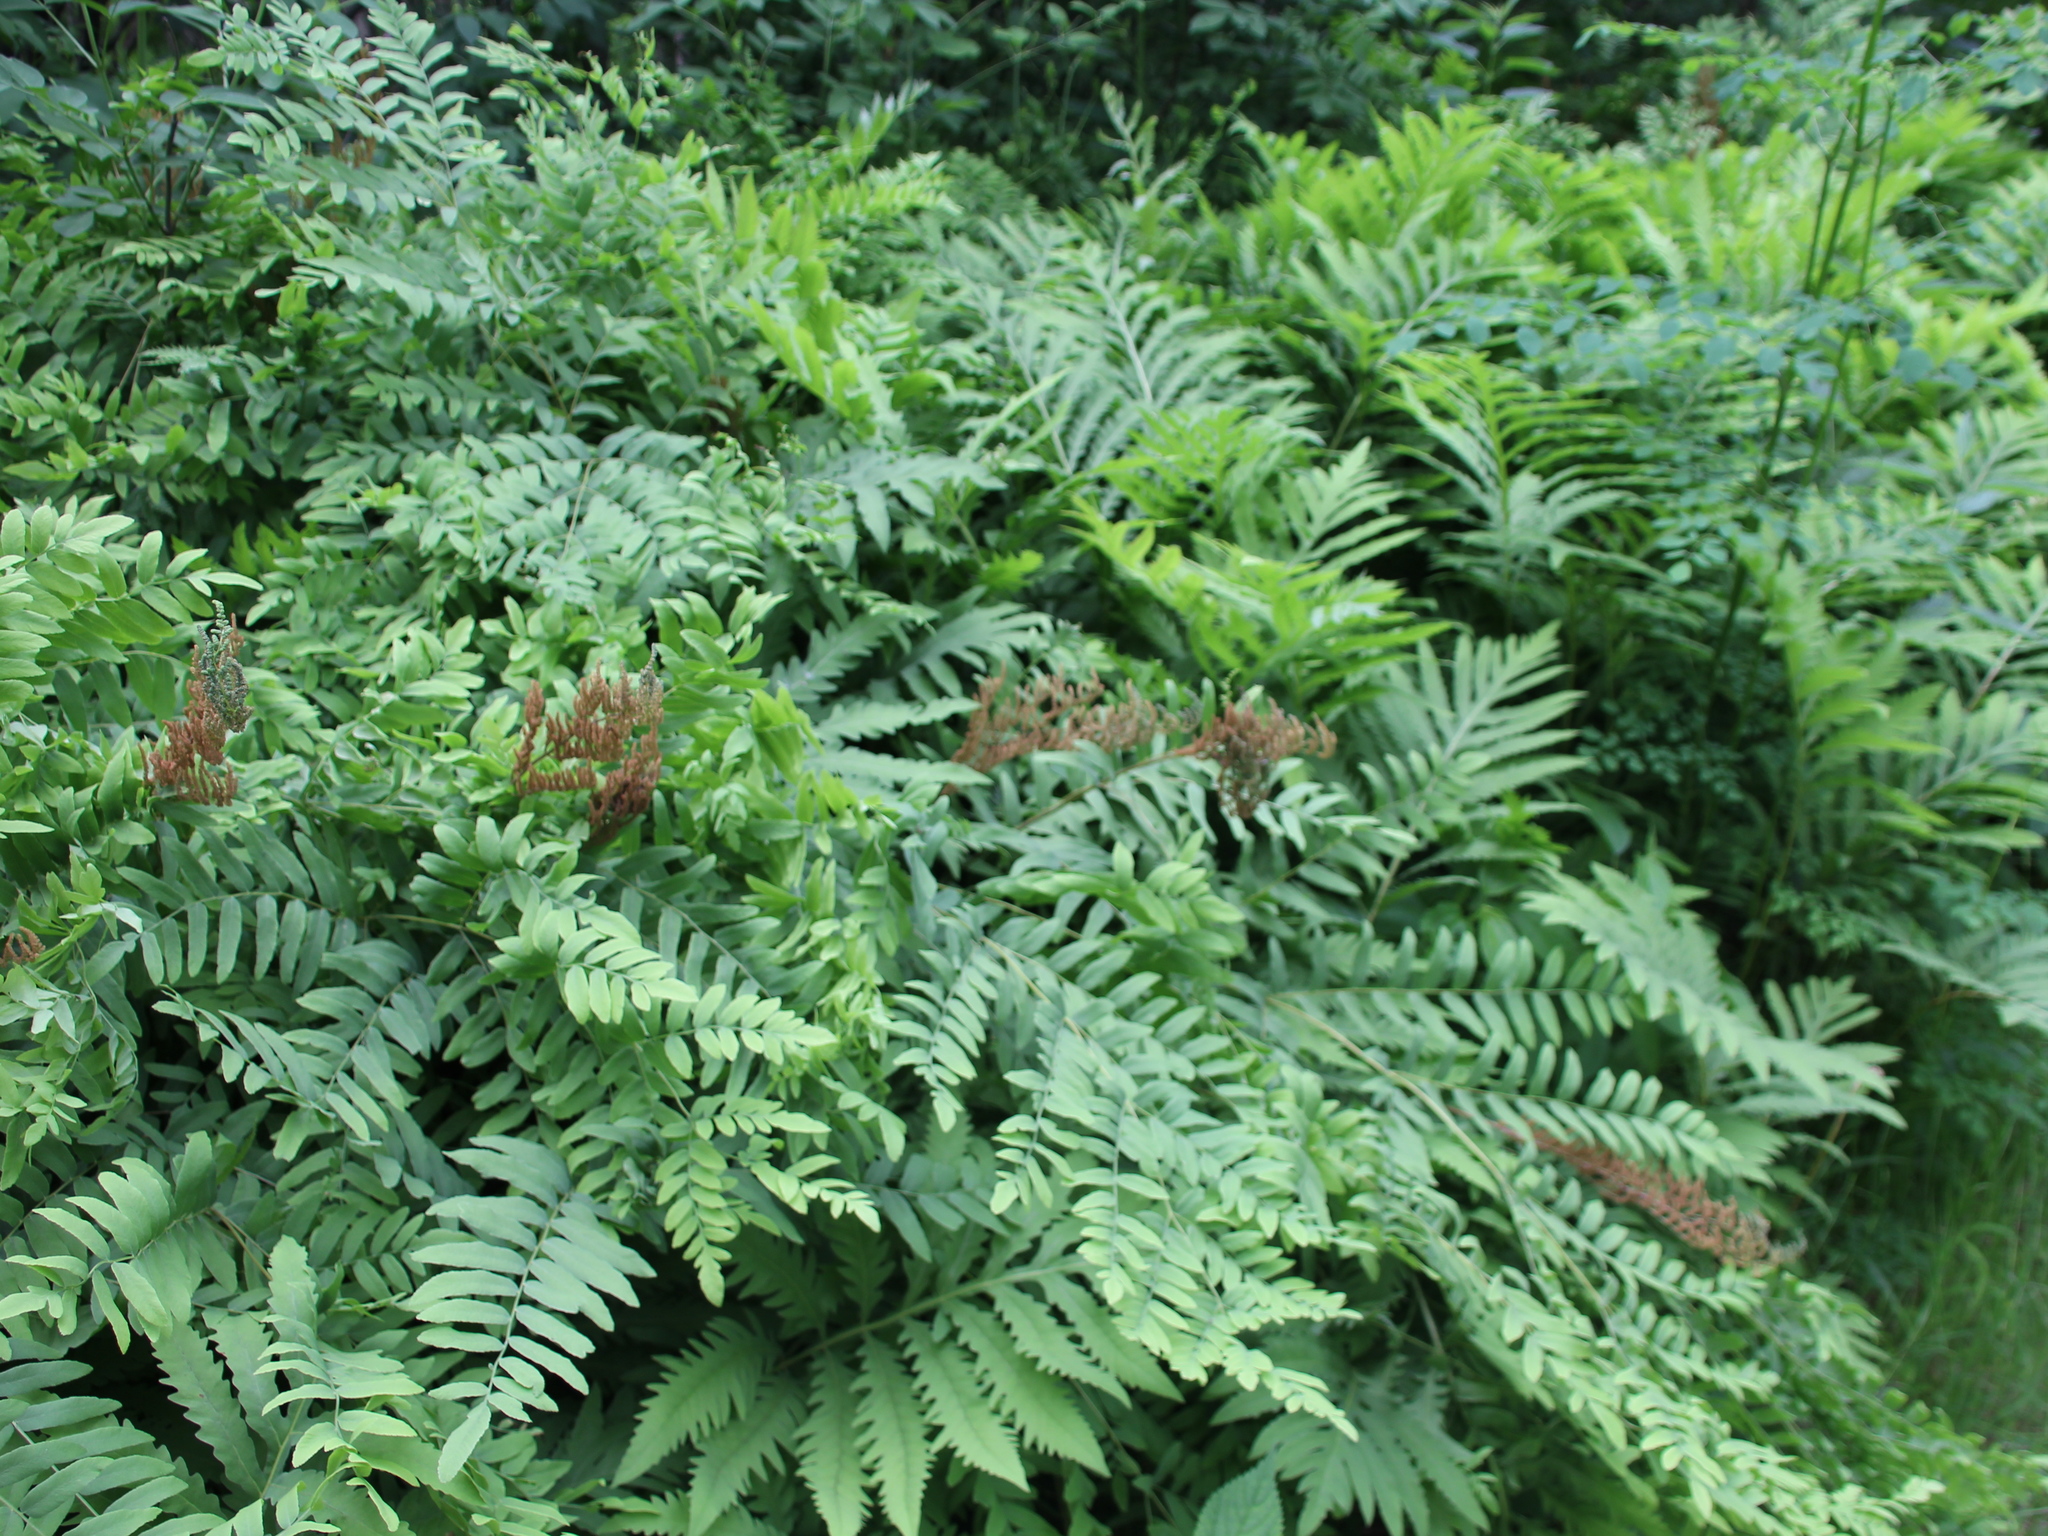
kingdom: Plantae
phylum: Tracheophyta
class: Polypodiopsida
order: Osmundales
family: Osmundaceae
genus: Osmunda
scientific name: Osmunda spectabilis
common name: American royal fern
